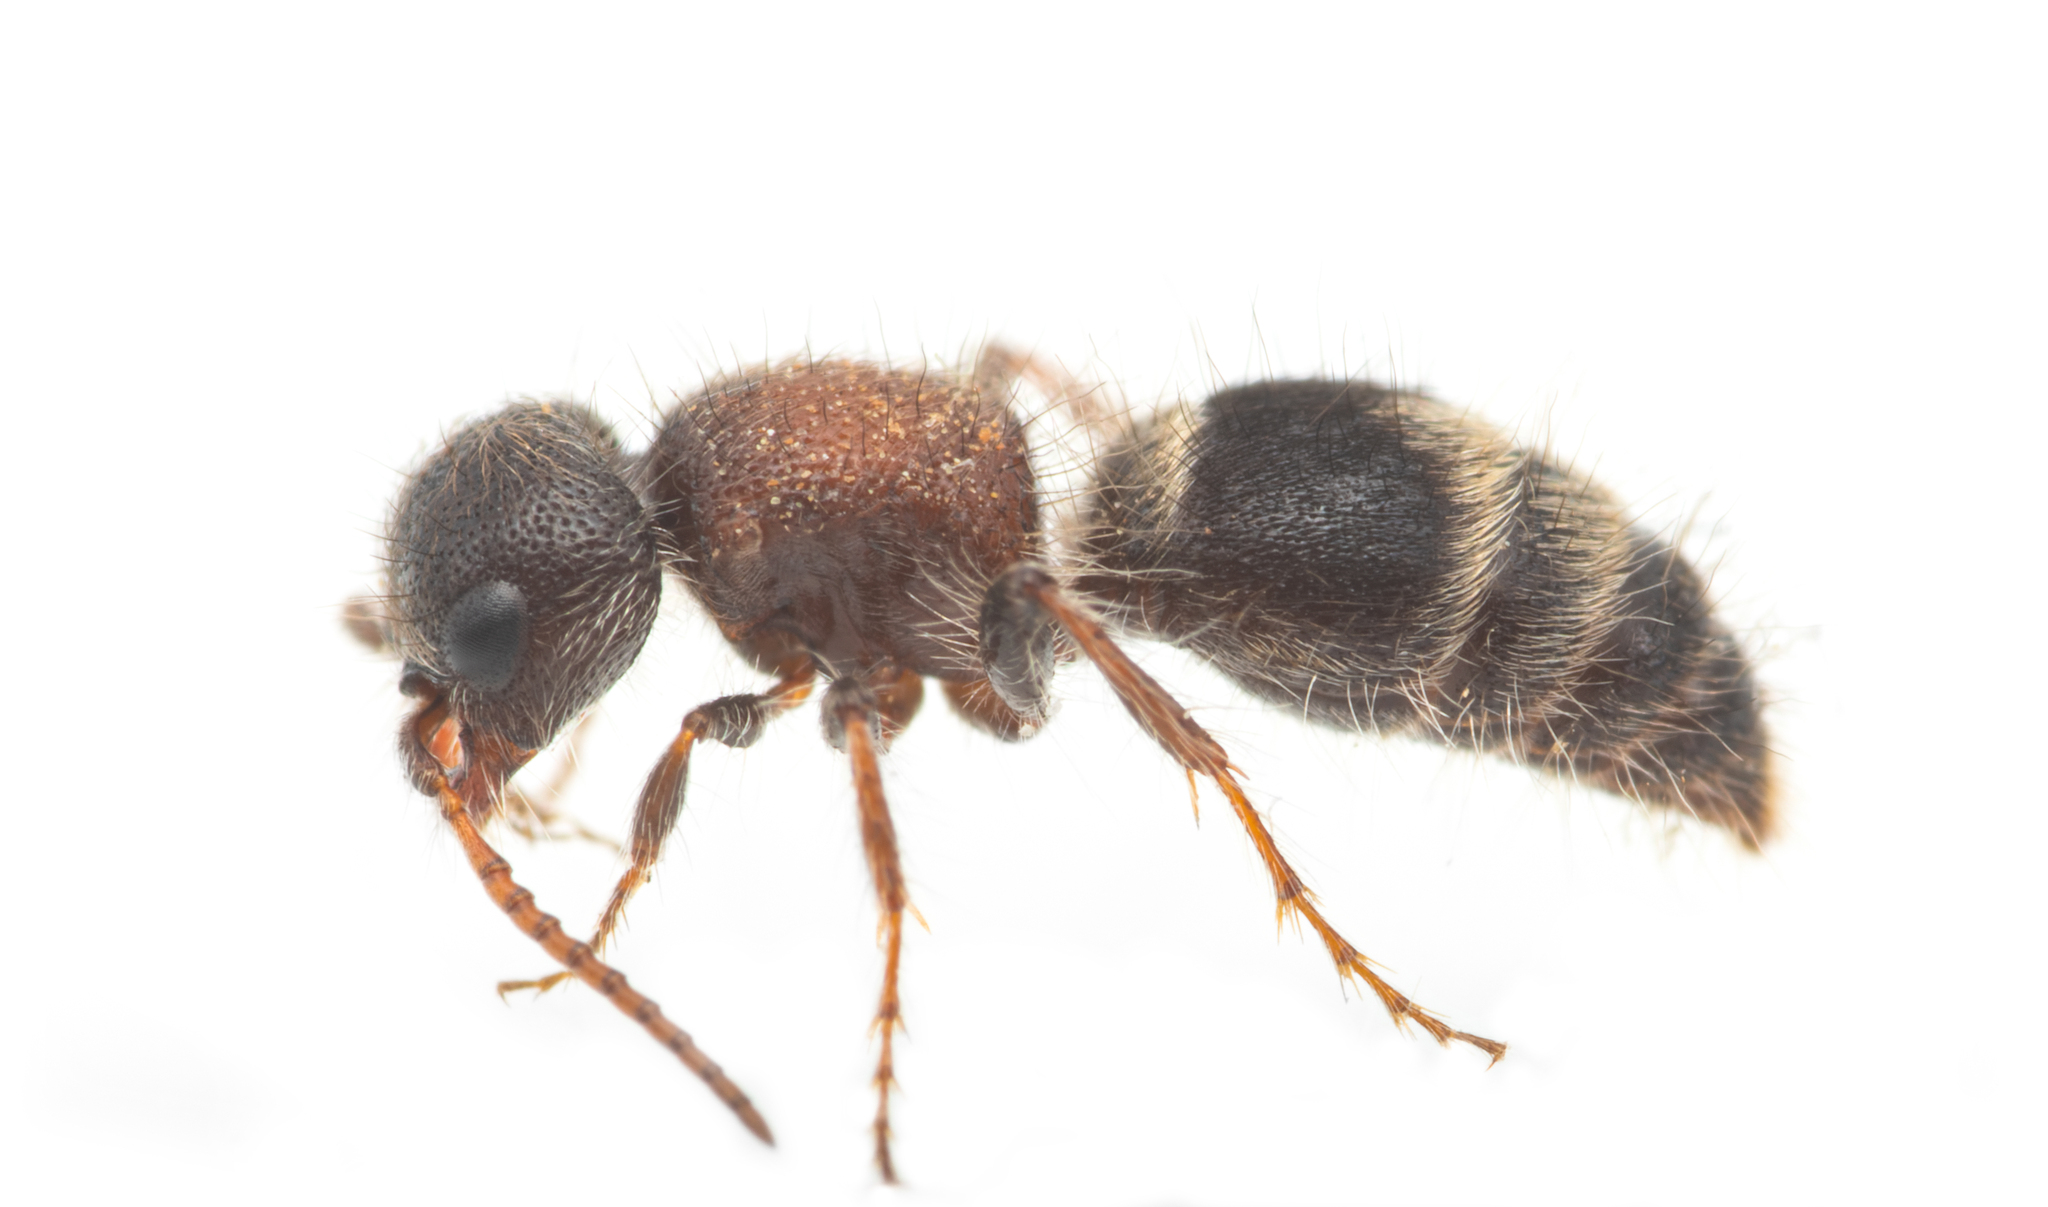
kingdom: Animalia
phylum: Arthropoda
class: Insecta
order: Hymenoptera
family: Mutillidae
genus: Myrmilla
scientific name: Myrmilla calva
